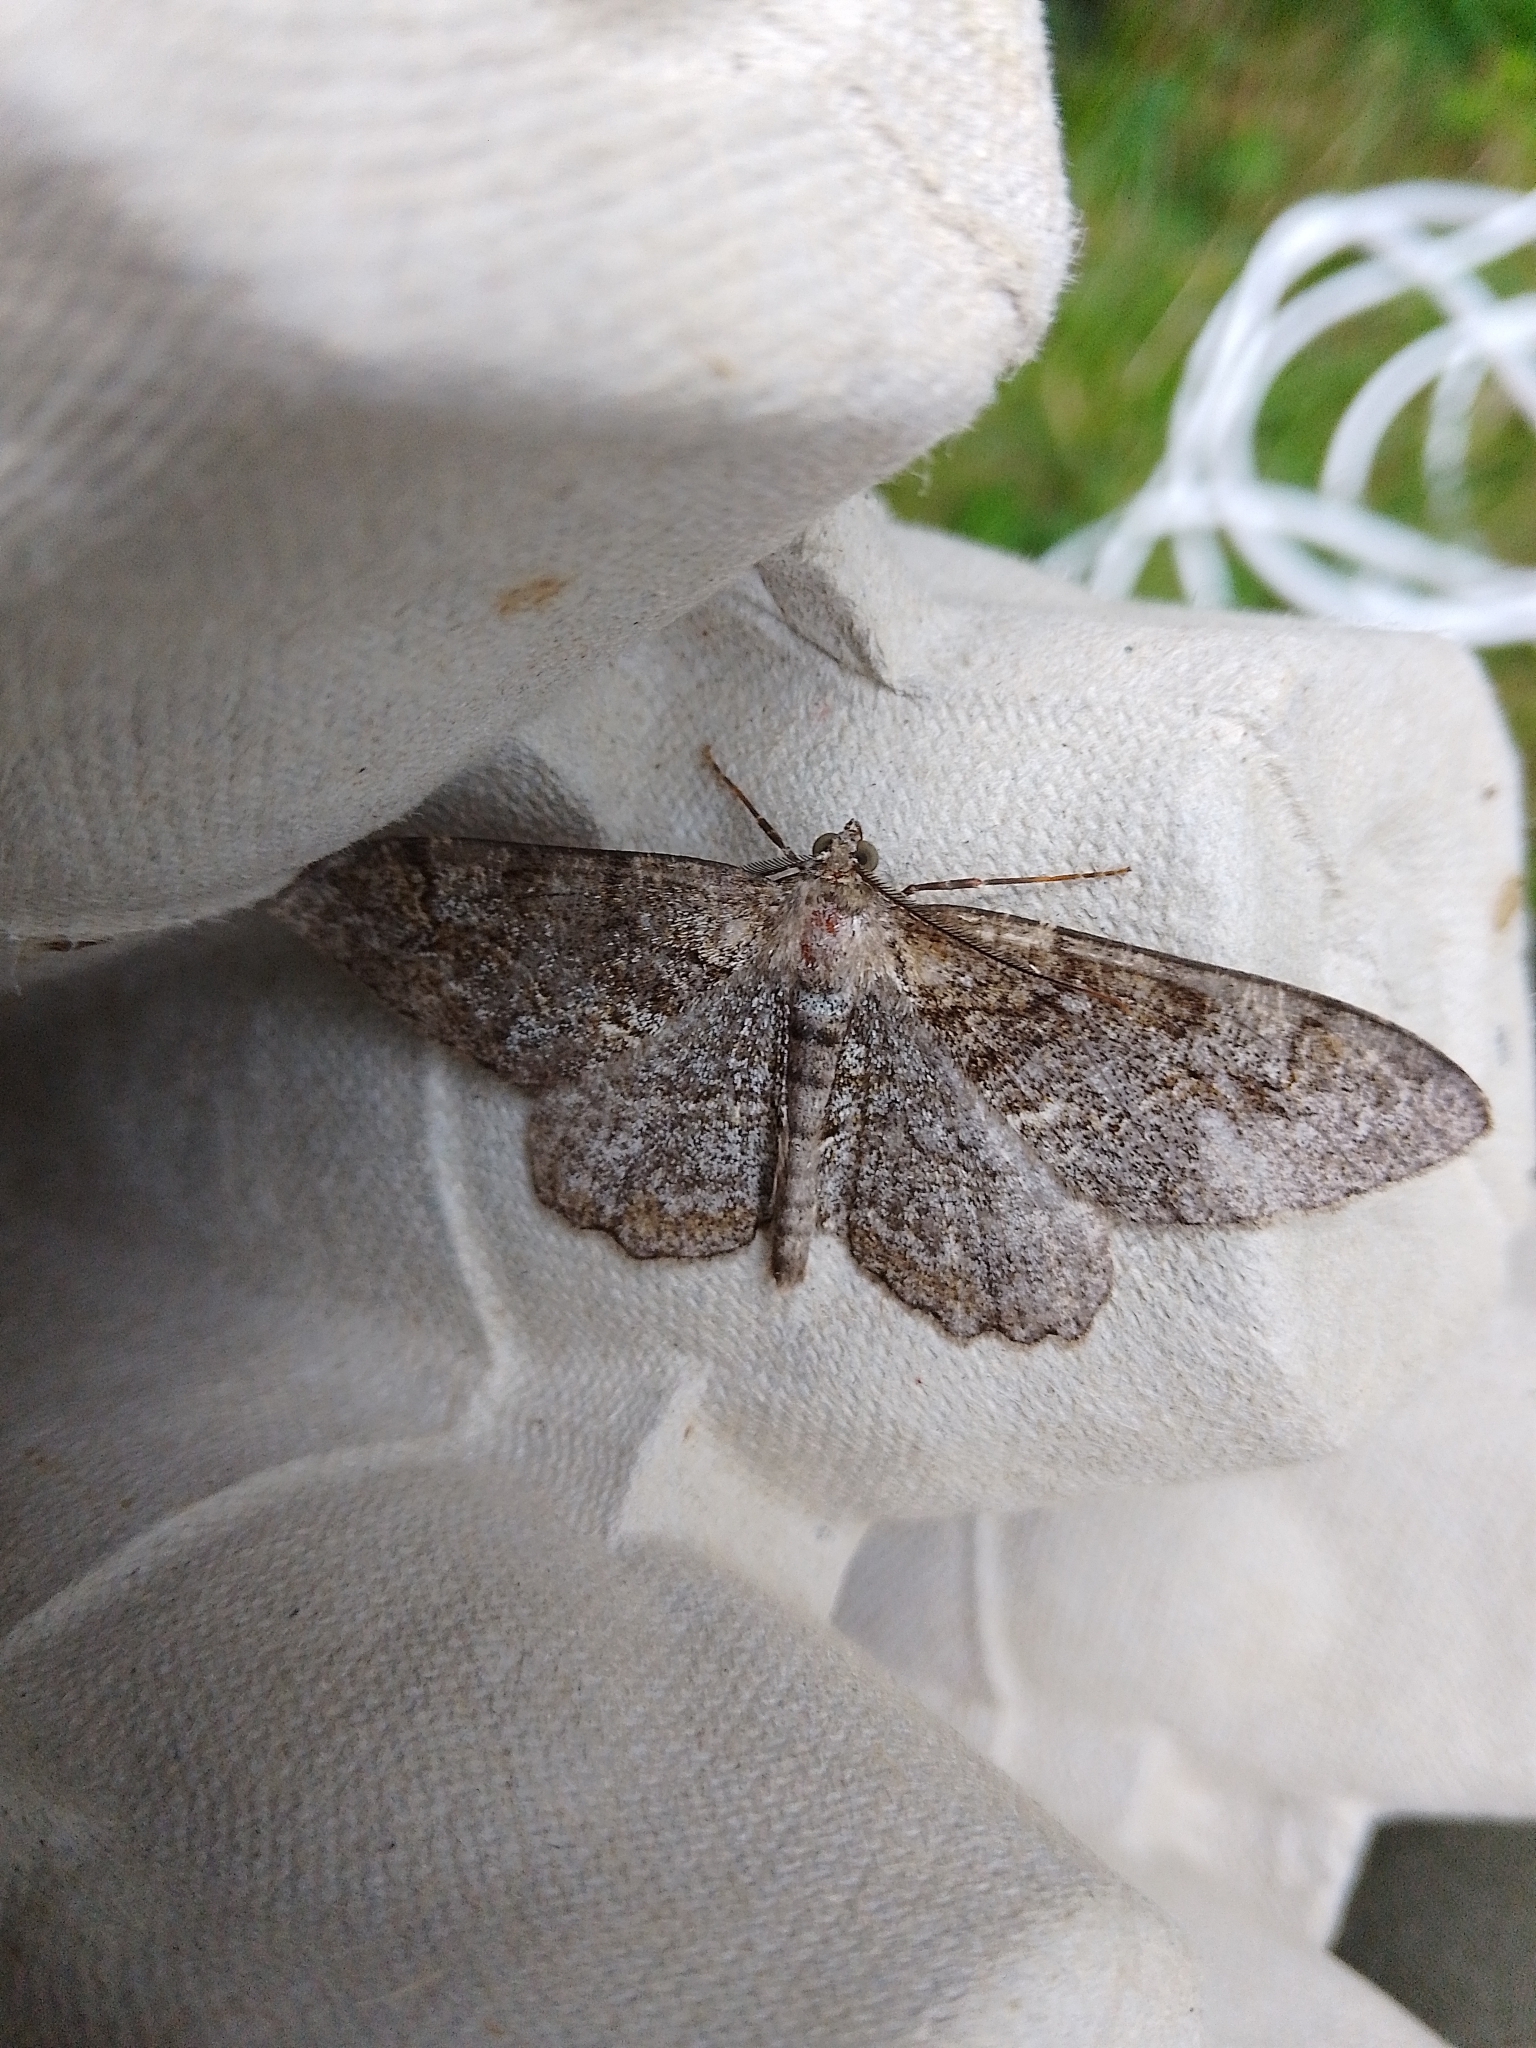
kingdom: Animalia
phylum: Arthropoda
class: Insecta
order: Lepidoptera
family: Geometridae
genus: Alcis
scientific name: Alcis repandata
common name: Mottled beauty
